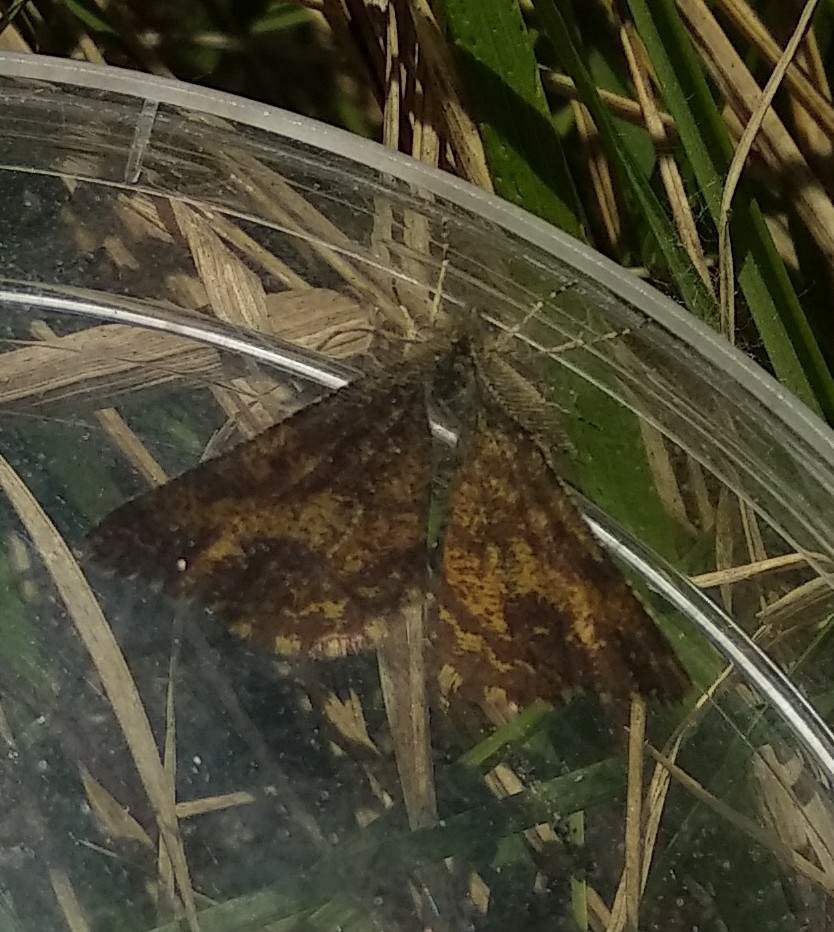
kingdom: Animalia
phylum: Arthropoda
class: Insecta
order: Lepidoptera
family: Geometridae
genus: Ematurga
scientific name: Ematurga atomaria
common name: Common heath
